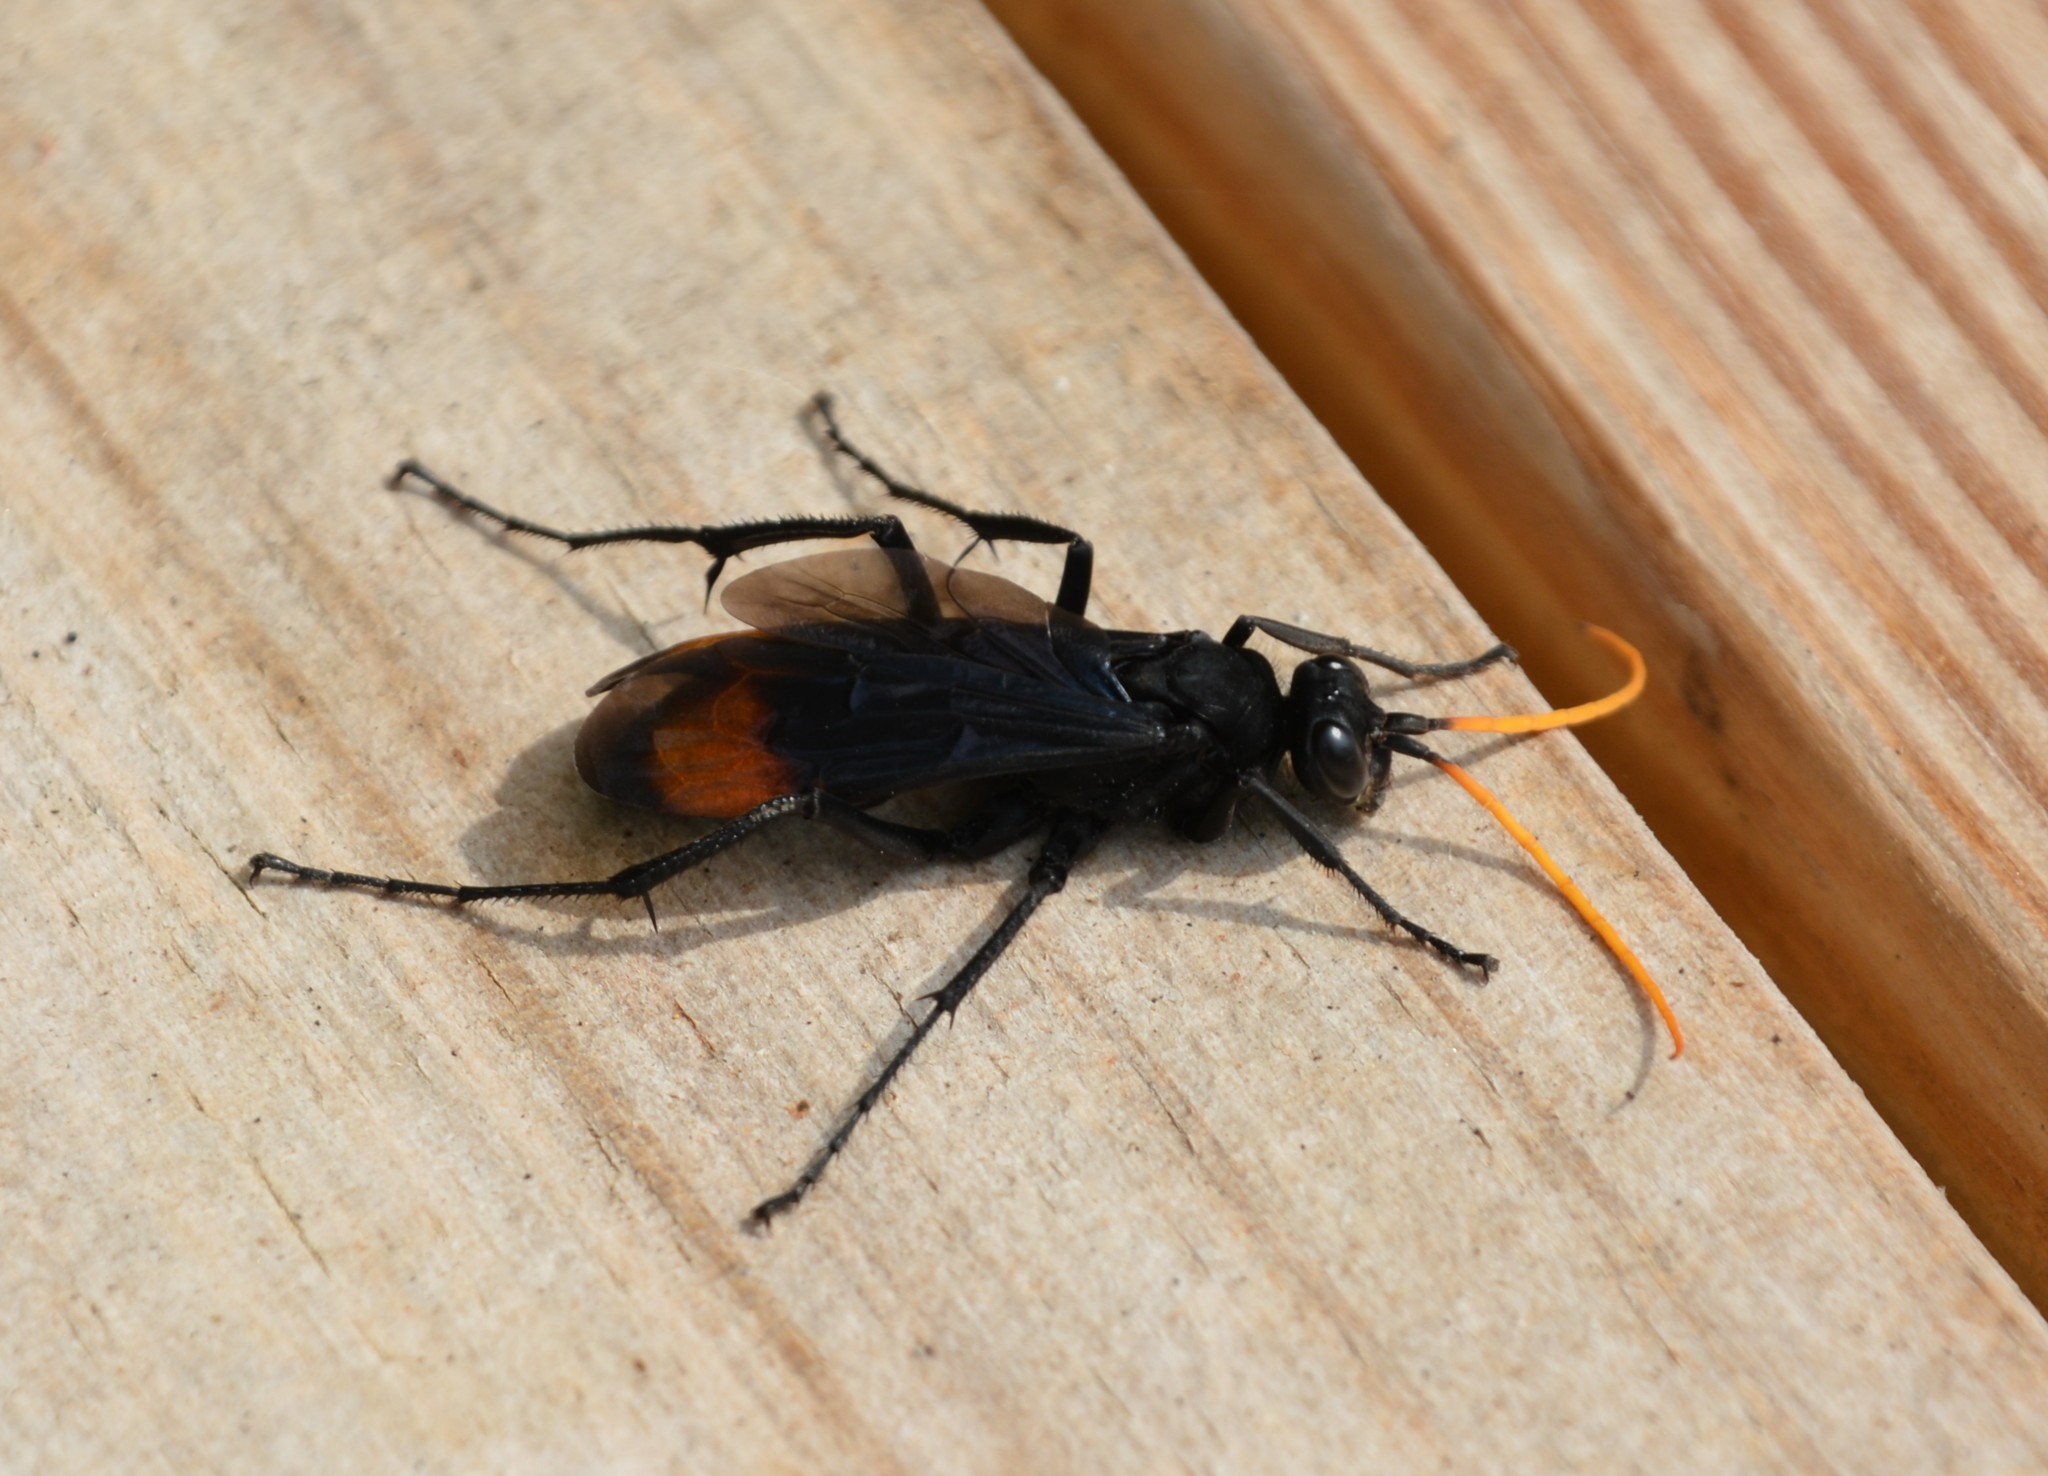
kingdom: Animalia
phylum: Arthropoda
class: Insecta
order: Hymenoptera
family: Pompilidae
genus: Entypus
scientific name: Entypus unifasciatus
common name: Eastern tawny-horned spider wasp
